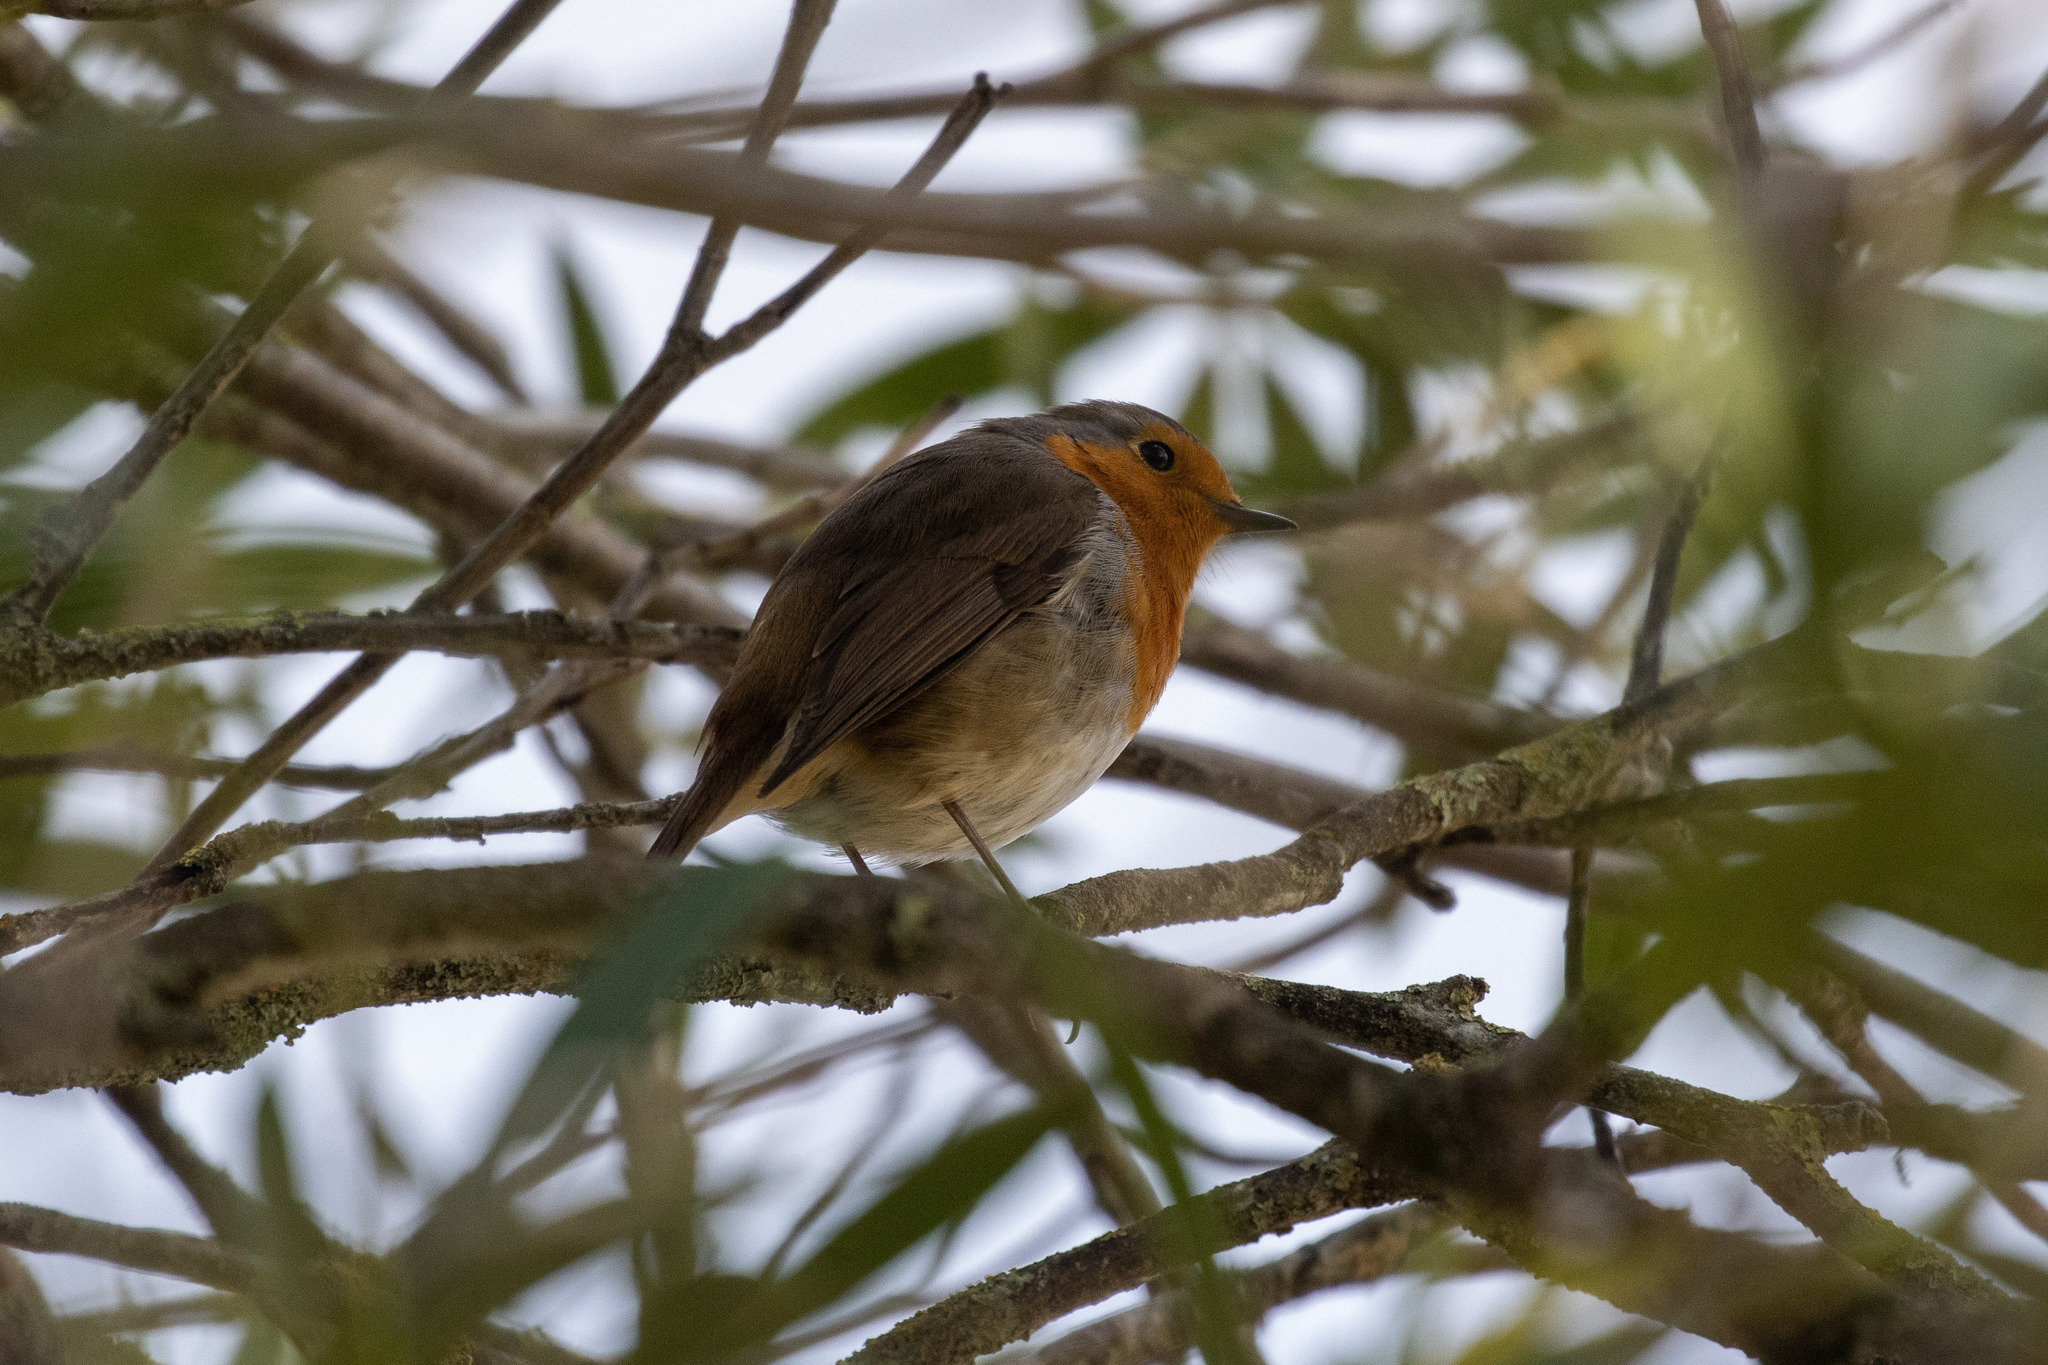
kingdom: Animalia
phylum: Chordata
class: Aves
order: Passeriformes
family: Muscicapidae
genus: Erithacus
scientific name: Erithacus rubecula
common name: European robin
